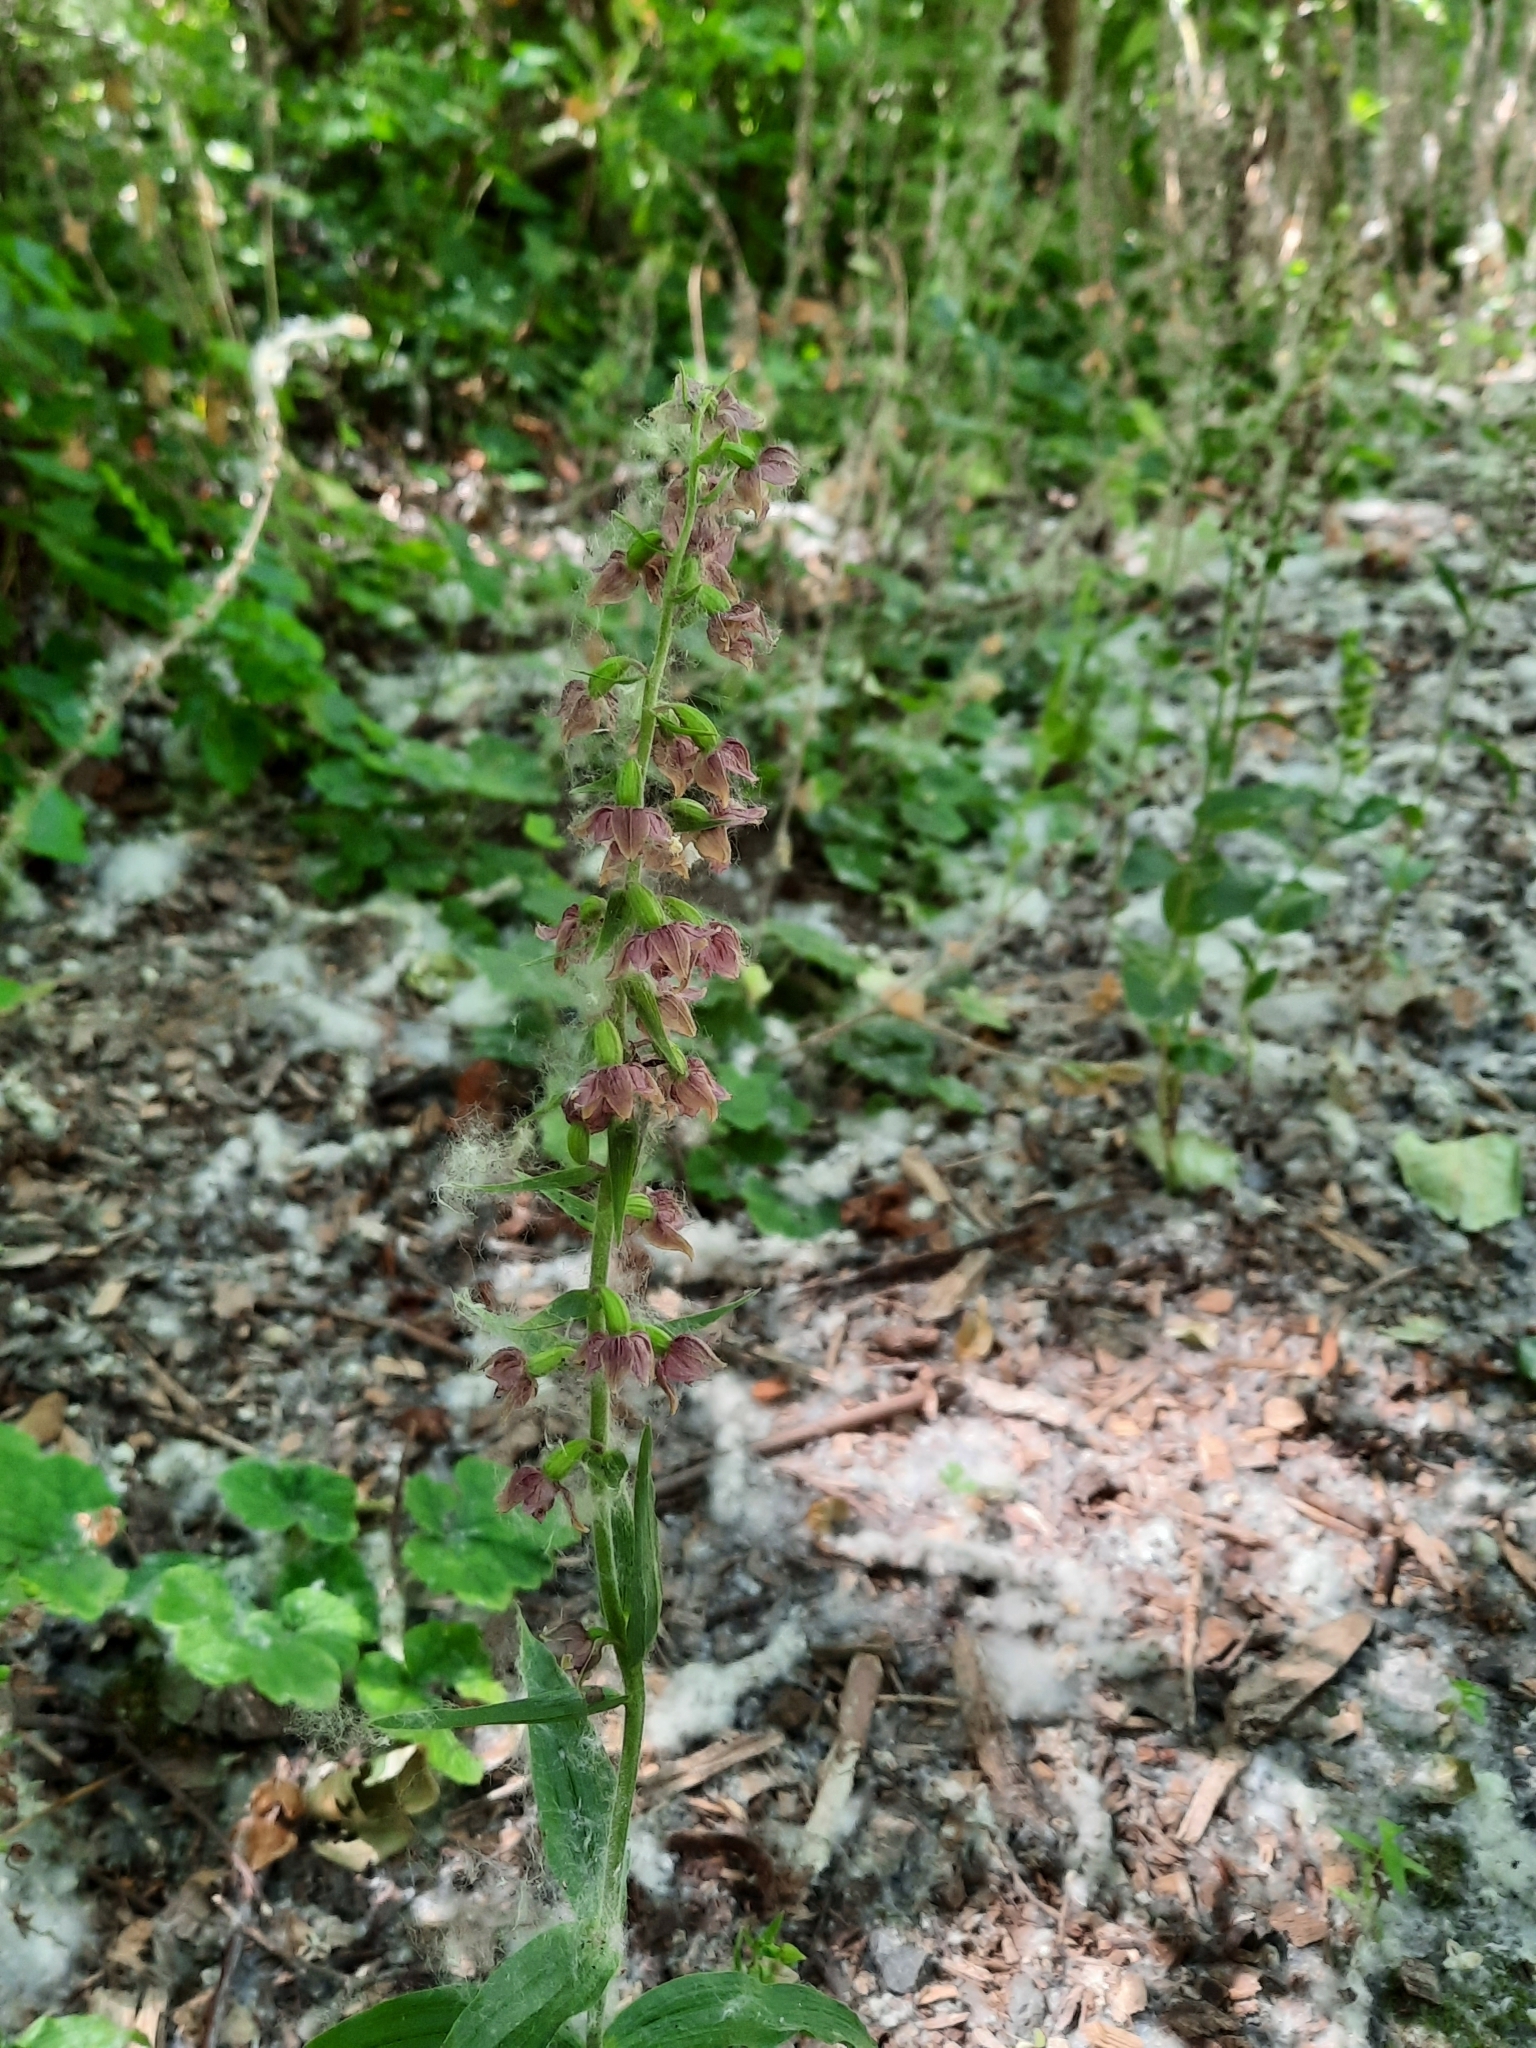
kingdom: Plantae
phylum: Tracheophyta
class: Liliopsida
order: Asparagales
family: Orchidaceae
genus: Epipactis
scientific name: Epipactis helleborine
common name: Broad-leaved helleborine
